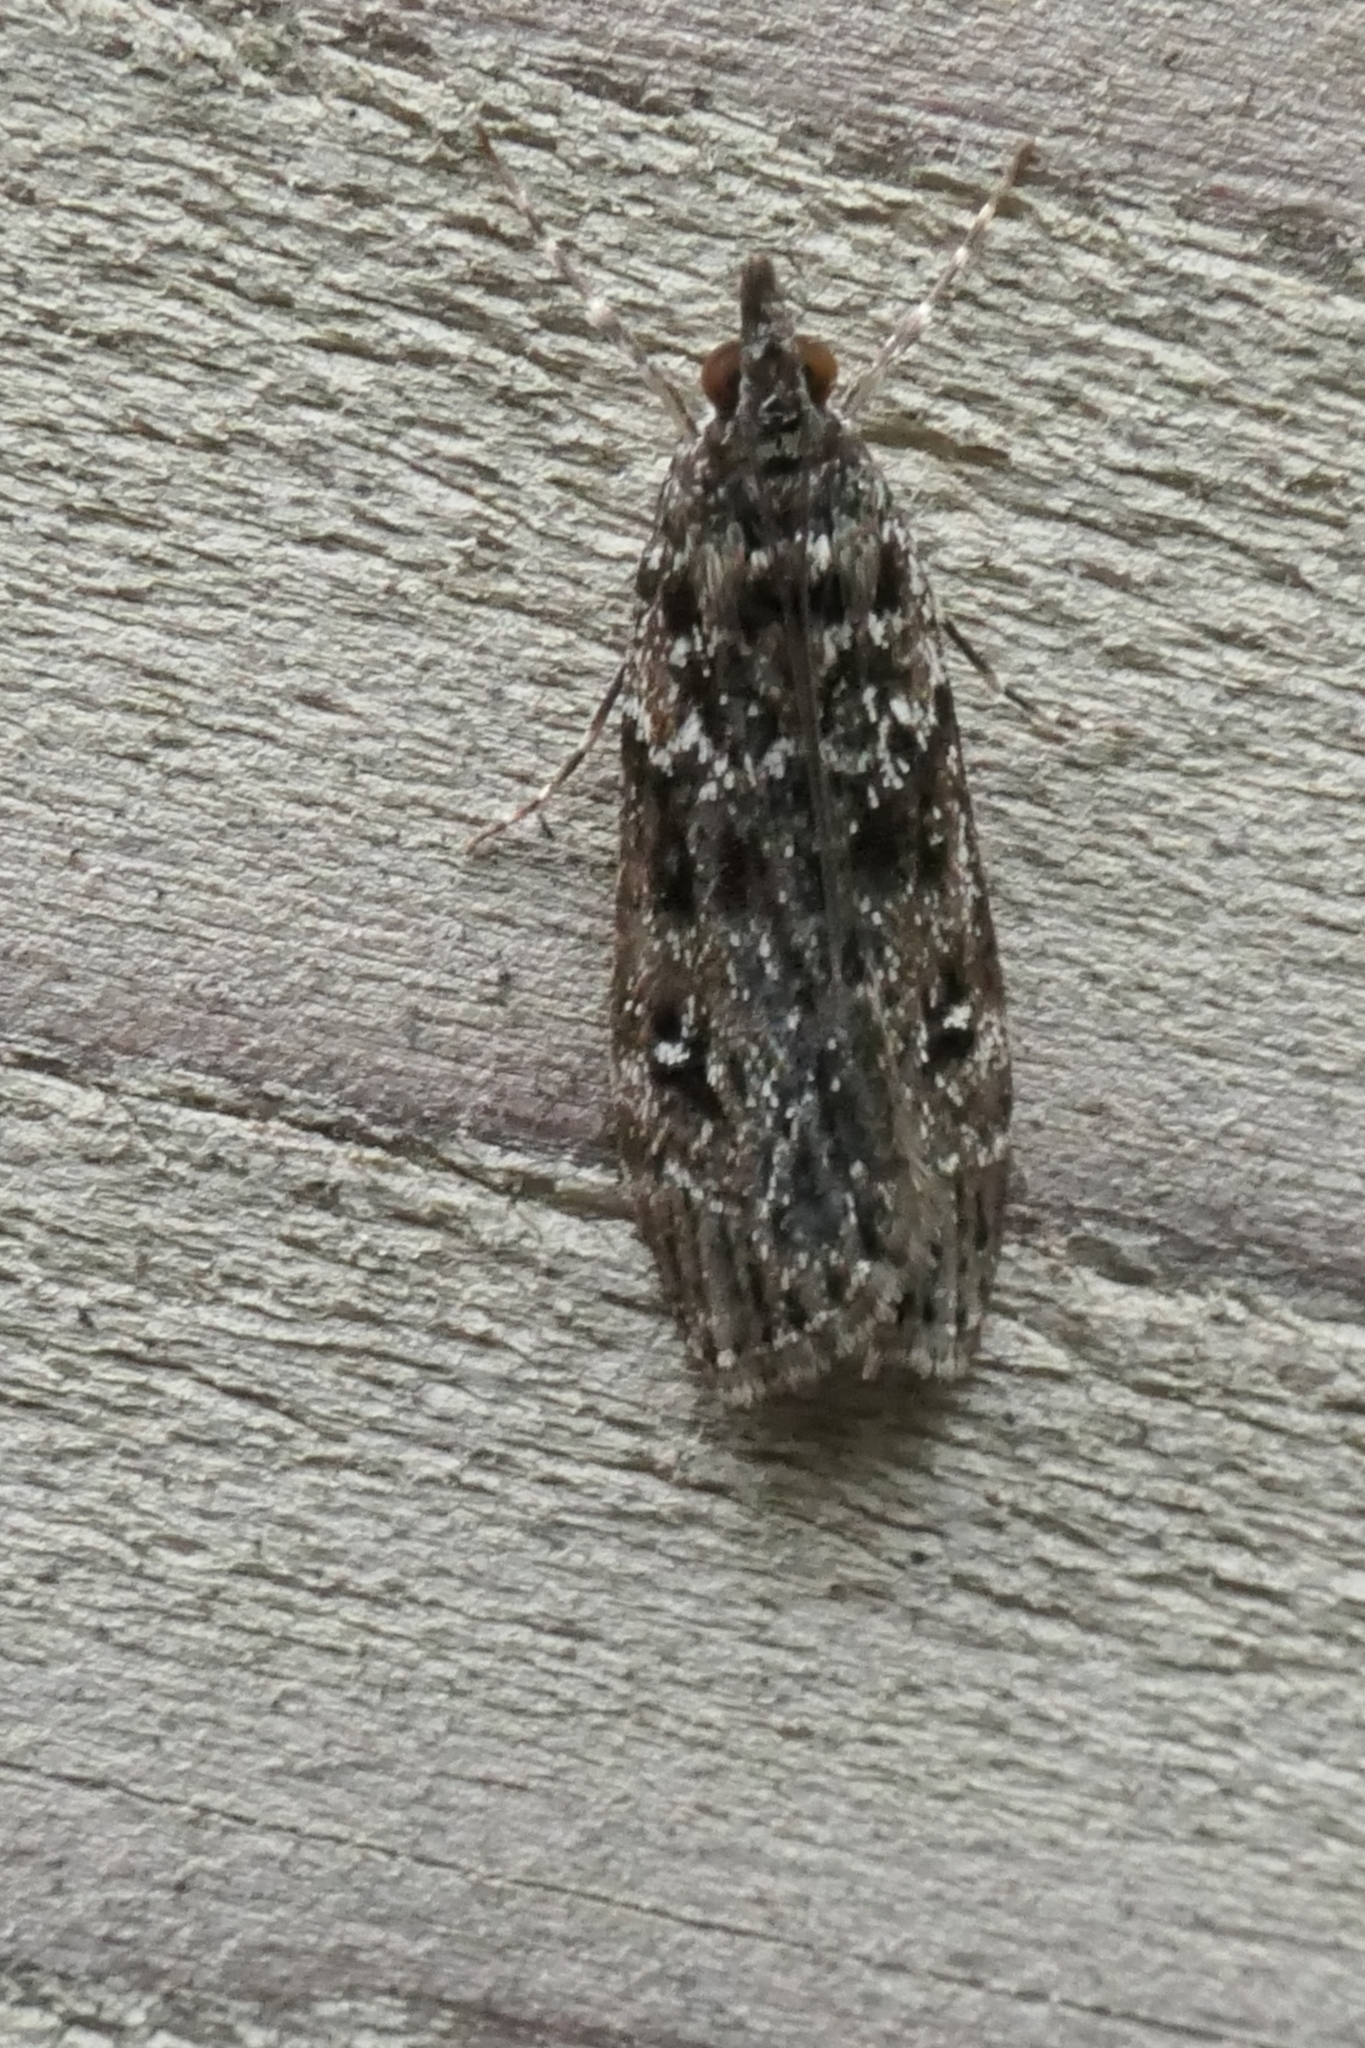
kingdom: Animalia
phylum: Arthropoda
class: Insecta
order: Lepidoptera
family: Crambidae
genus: Eudonia
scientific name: Eudonia philerga
